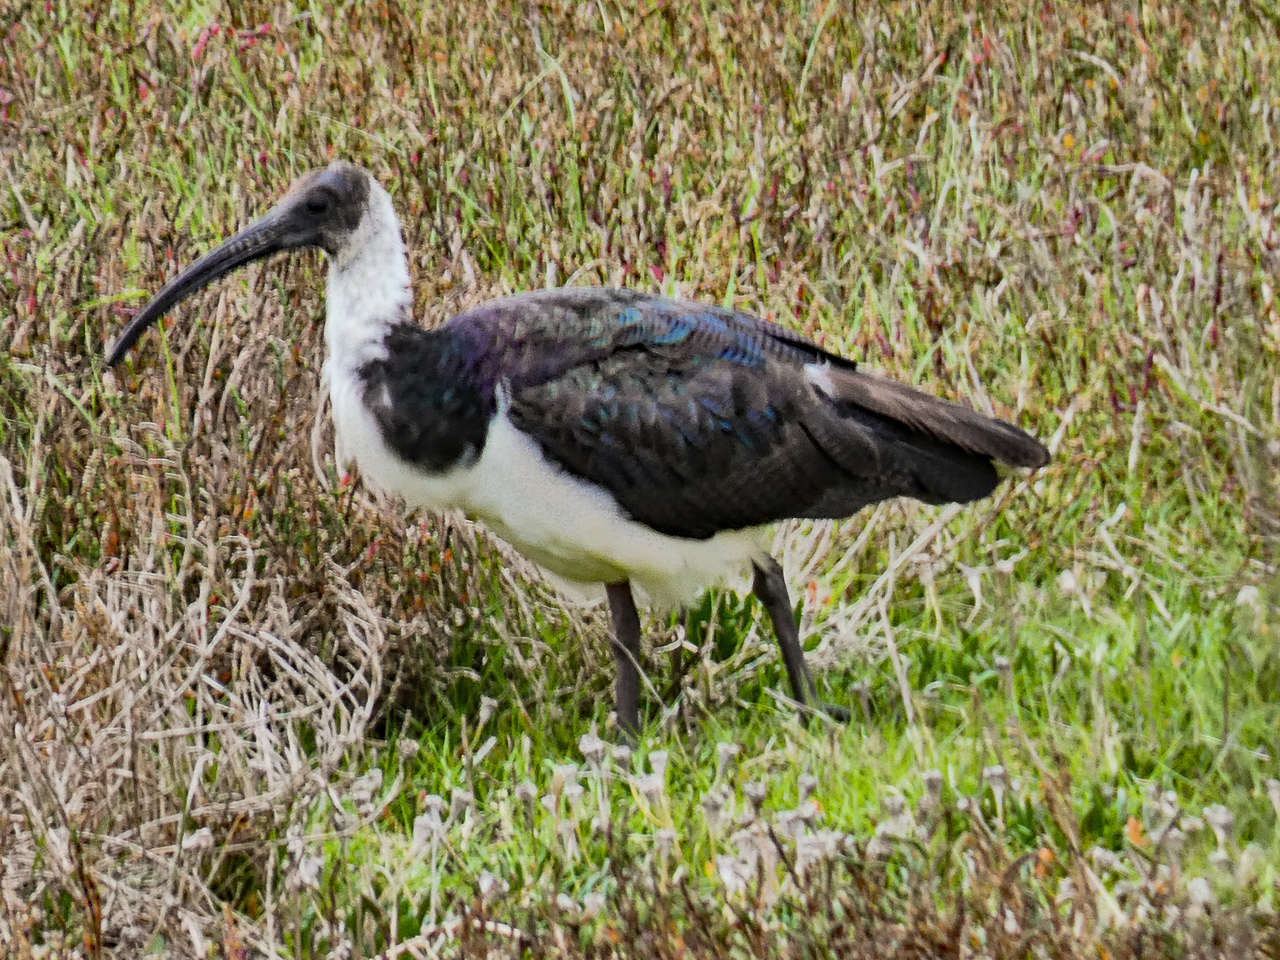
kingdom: Animalia
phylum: Chordata
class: Aves
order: Pelecaniformes
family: Threskiornithidae
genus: Threskiornis
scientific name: Threskiornis spinicollis
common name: Straw-necked ibis
